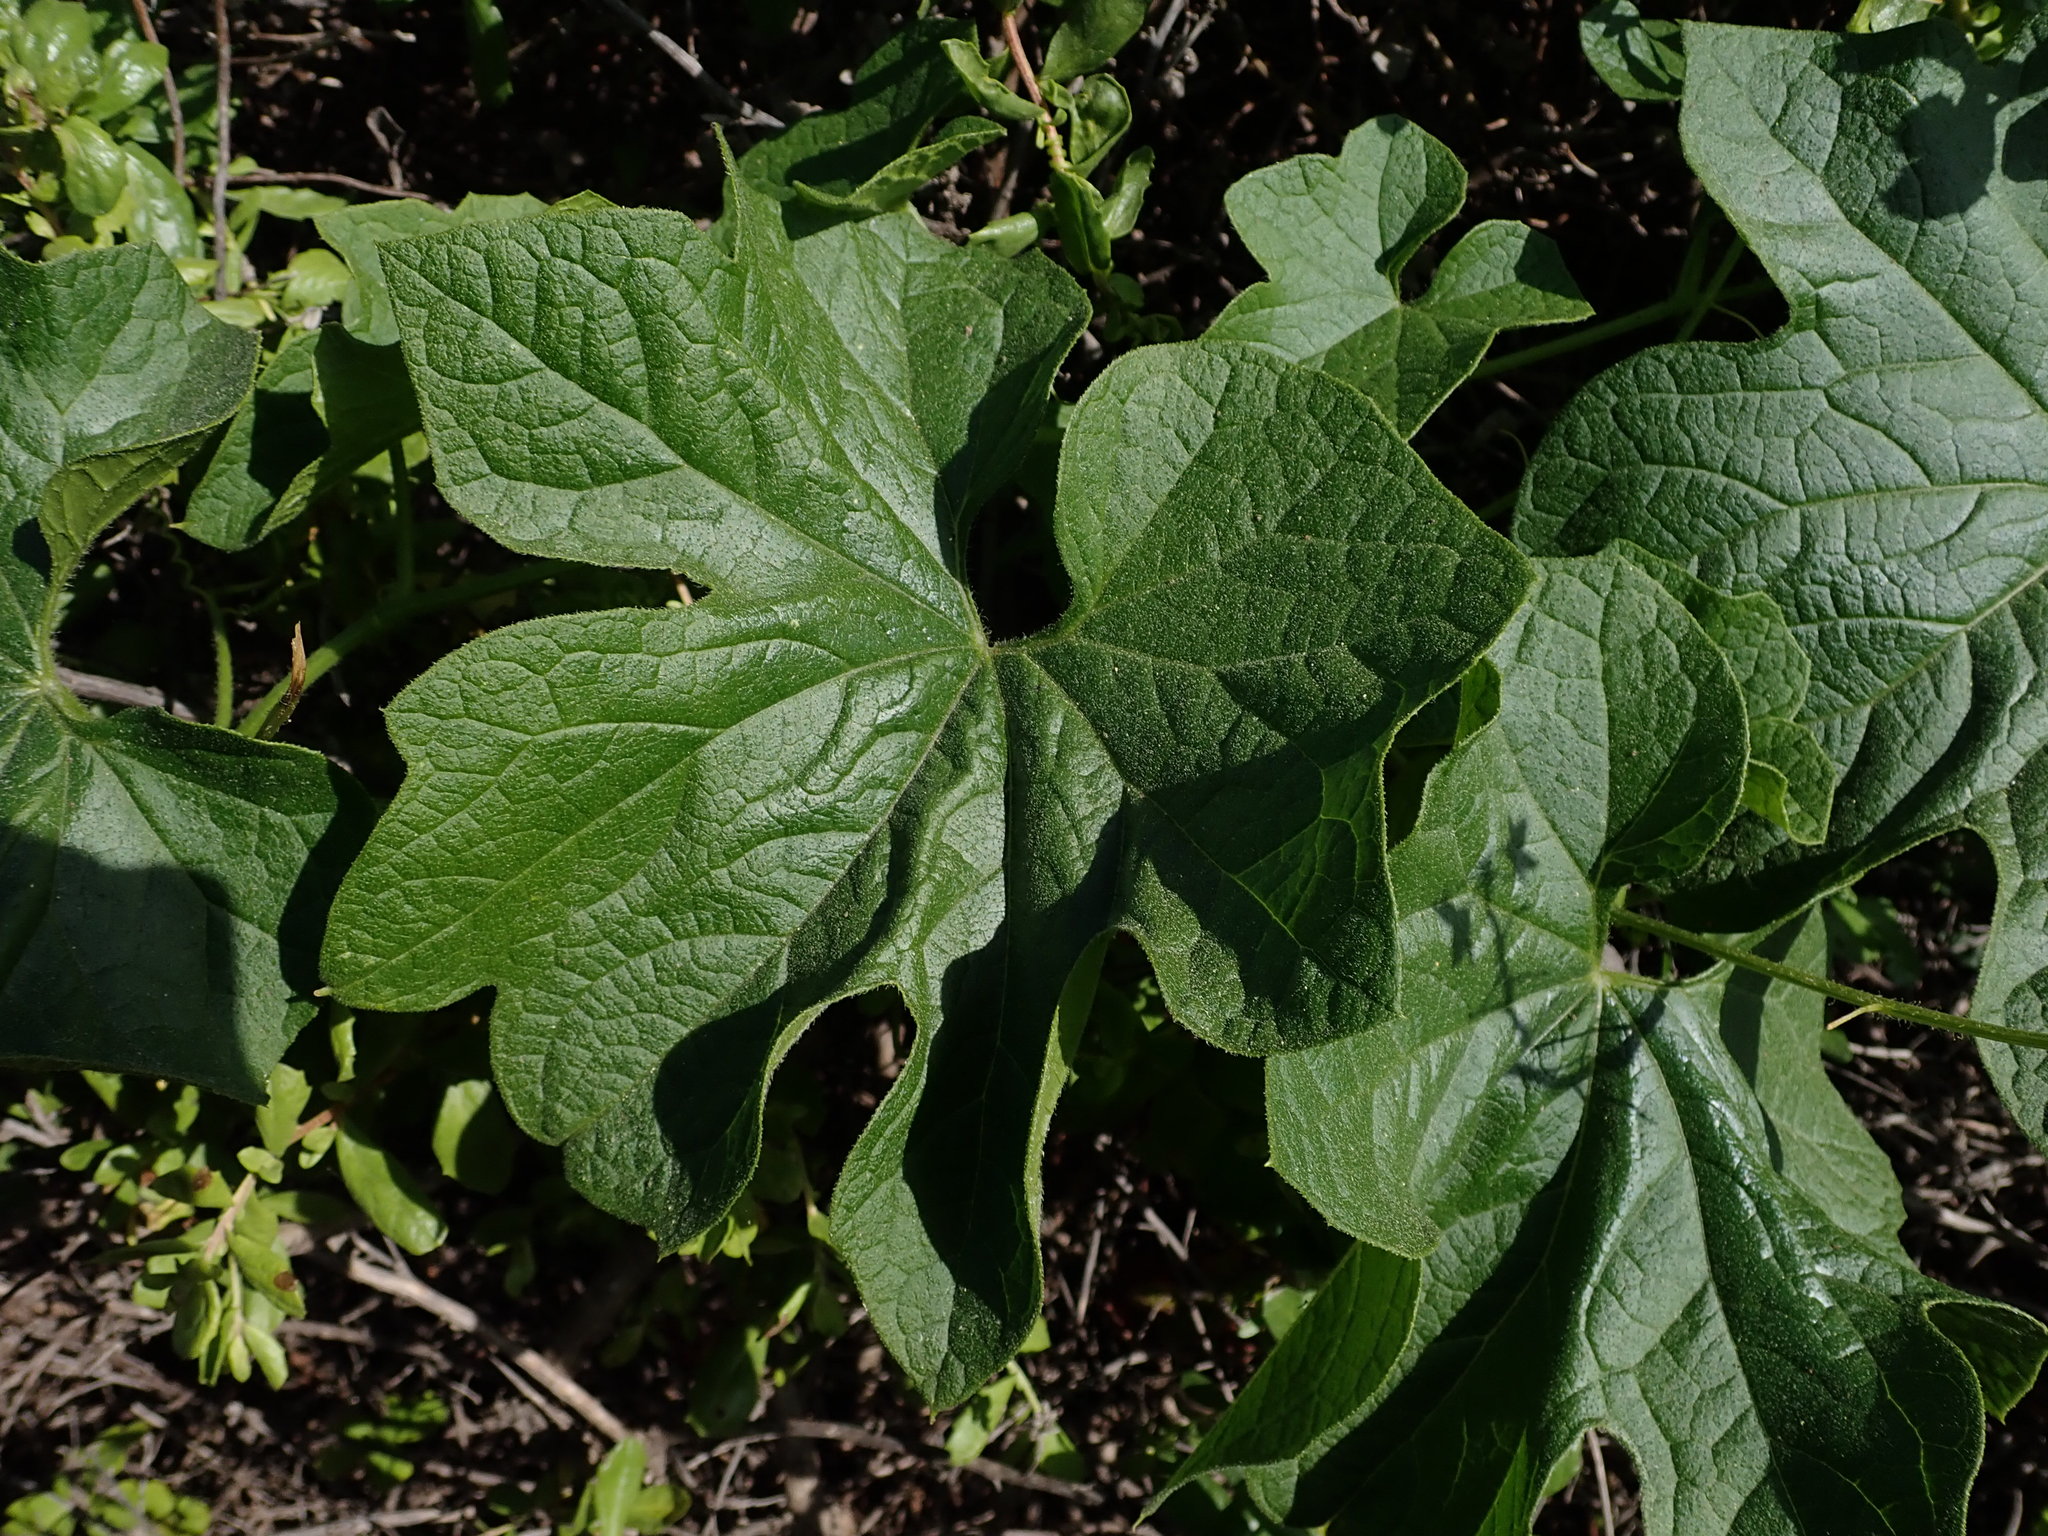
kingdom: Plantae
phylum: Tracheophyta
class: Magnoliopsida
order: Cucurbitales
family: Cucurbitaceae
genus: Marah
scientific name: Marah oregana
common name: Coastal manroot
